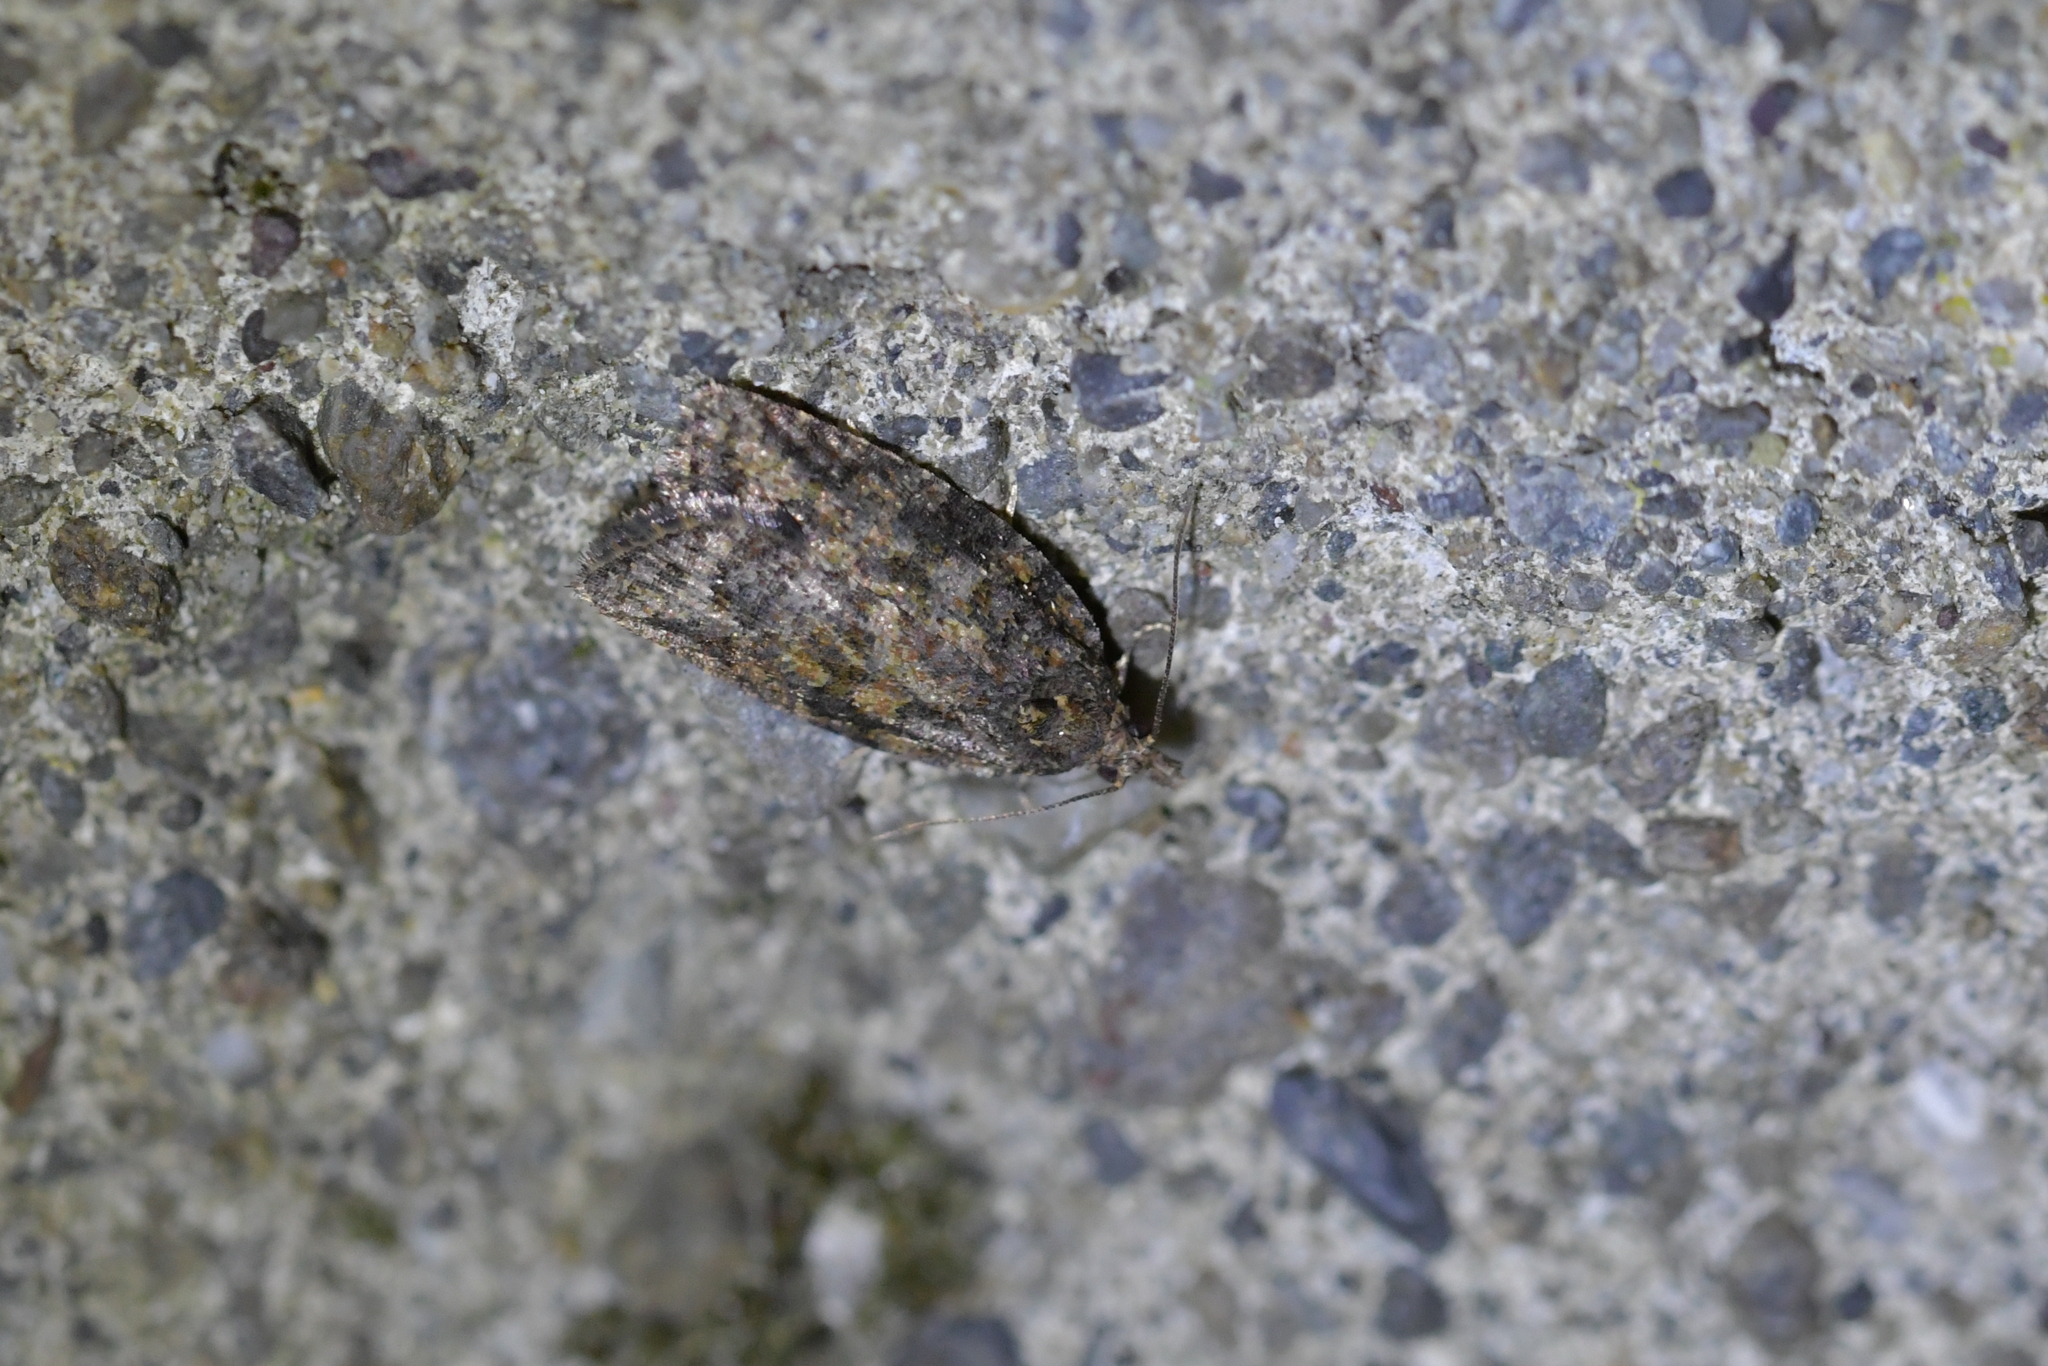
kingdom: Animalia
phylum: Arthropoda
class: Insecta
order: Lepidoptera
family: Tortricidae
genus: Capua
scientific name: Capua intractana
